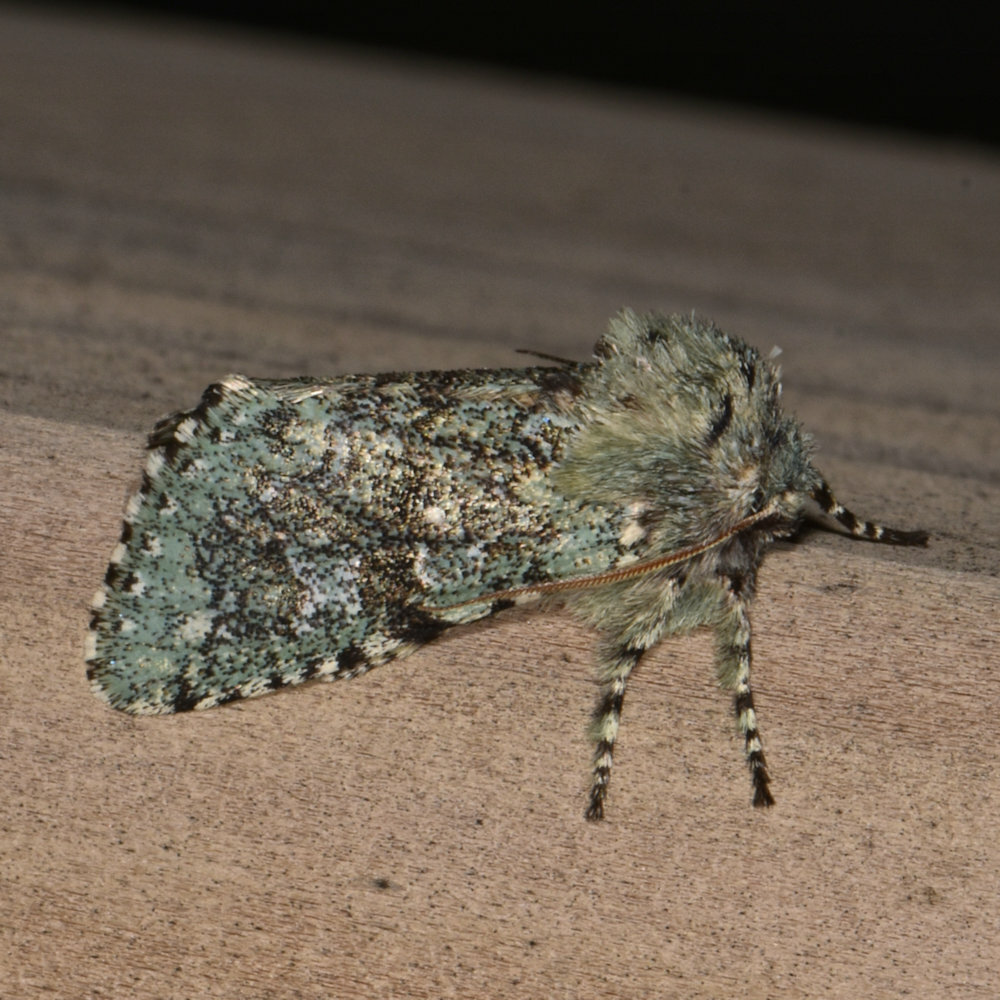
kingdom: Animalia
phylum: Arthropoda
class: Insecta
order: Lepidoptera
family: Noctuidae
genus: Feralia
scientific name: Feralia major
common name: Major sallow
